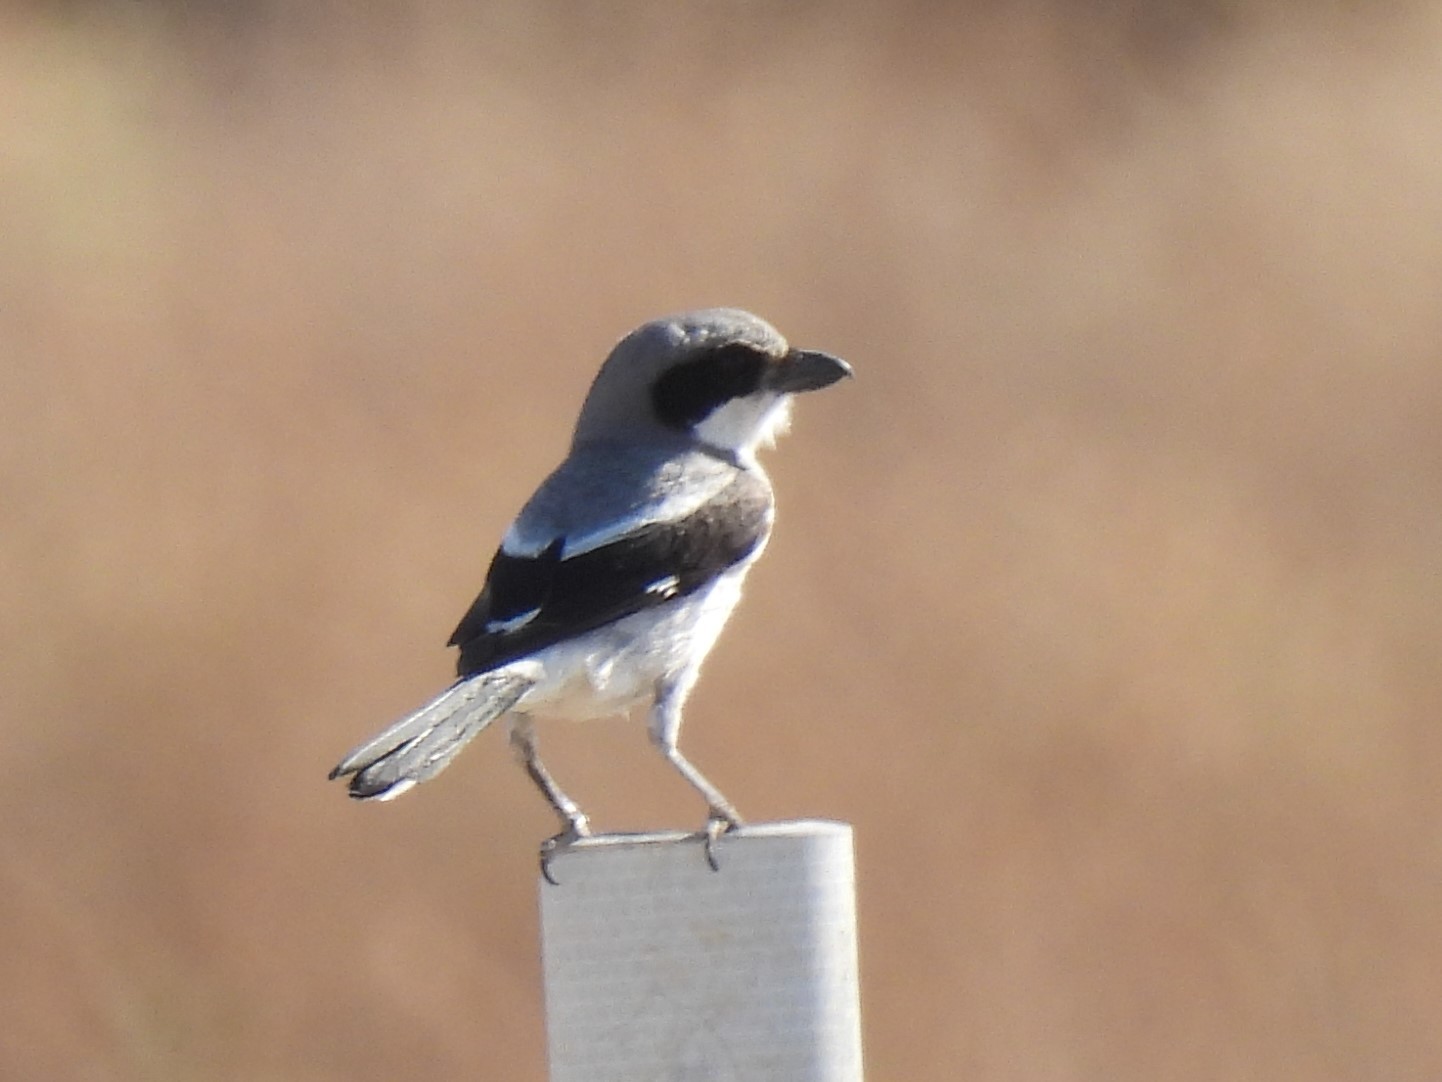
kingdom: Animalia
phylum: Chordata
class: Aves
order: Passeriformes
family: Laniidae
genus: Lanius
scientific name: Lanius ludovicianus
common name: Loggerhead shrike
